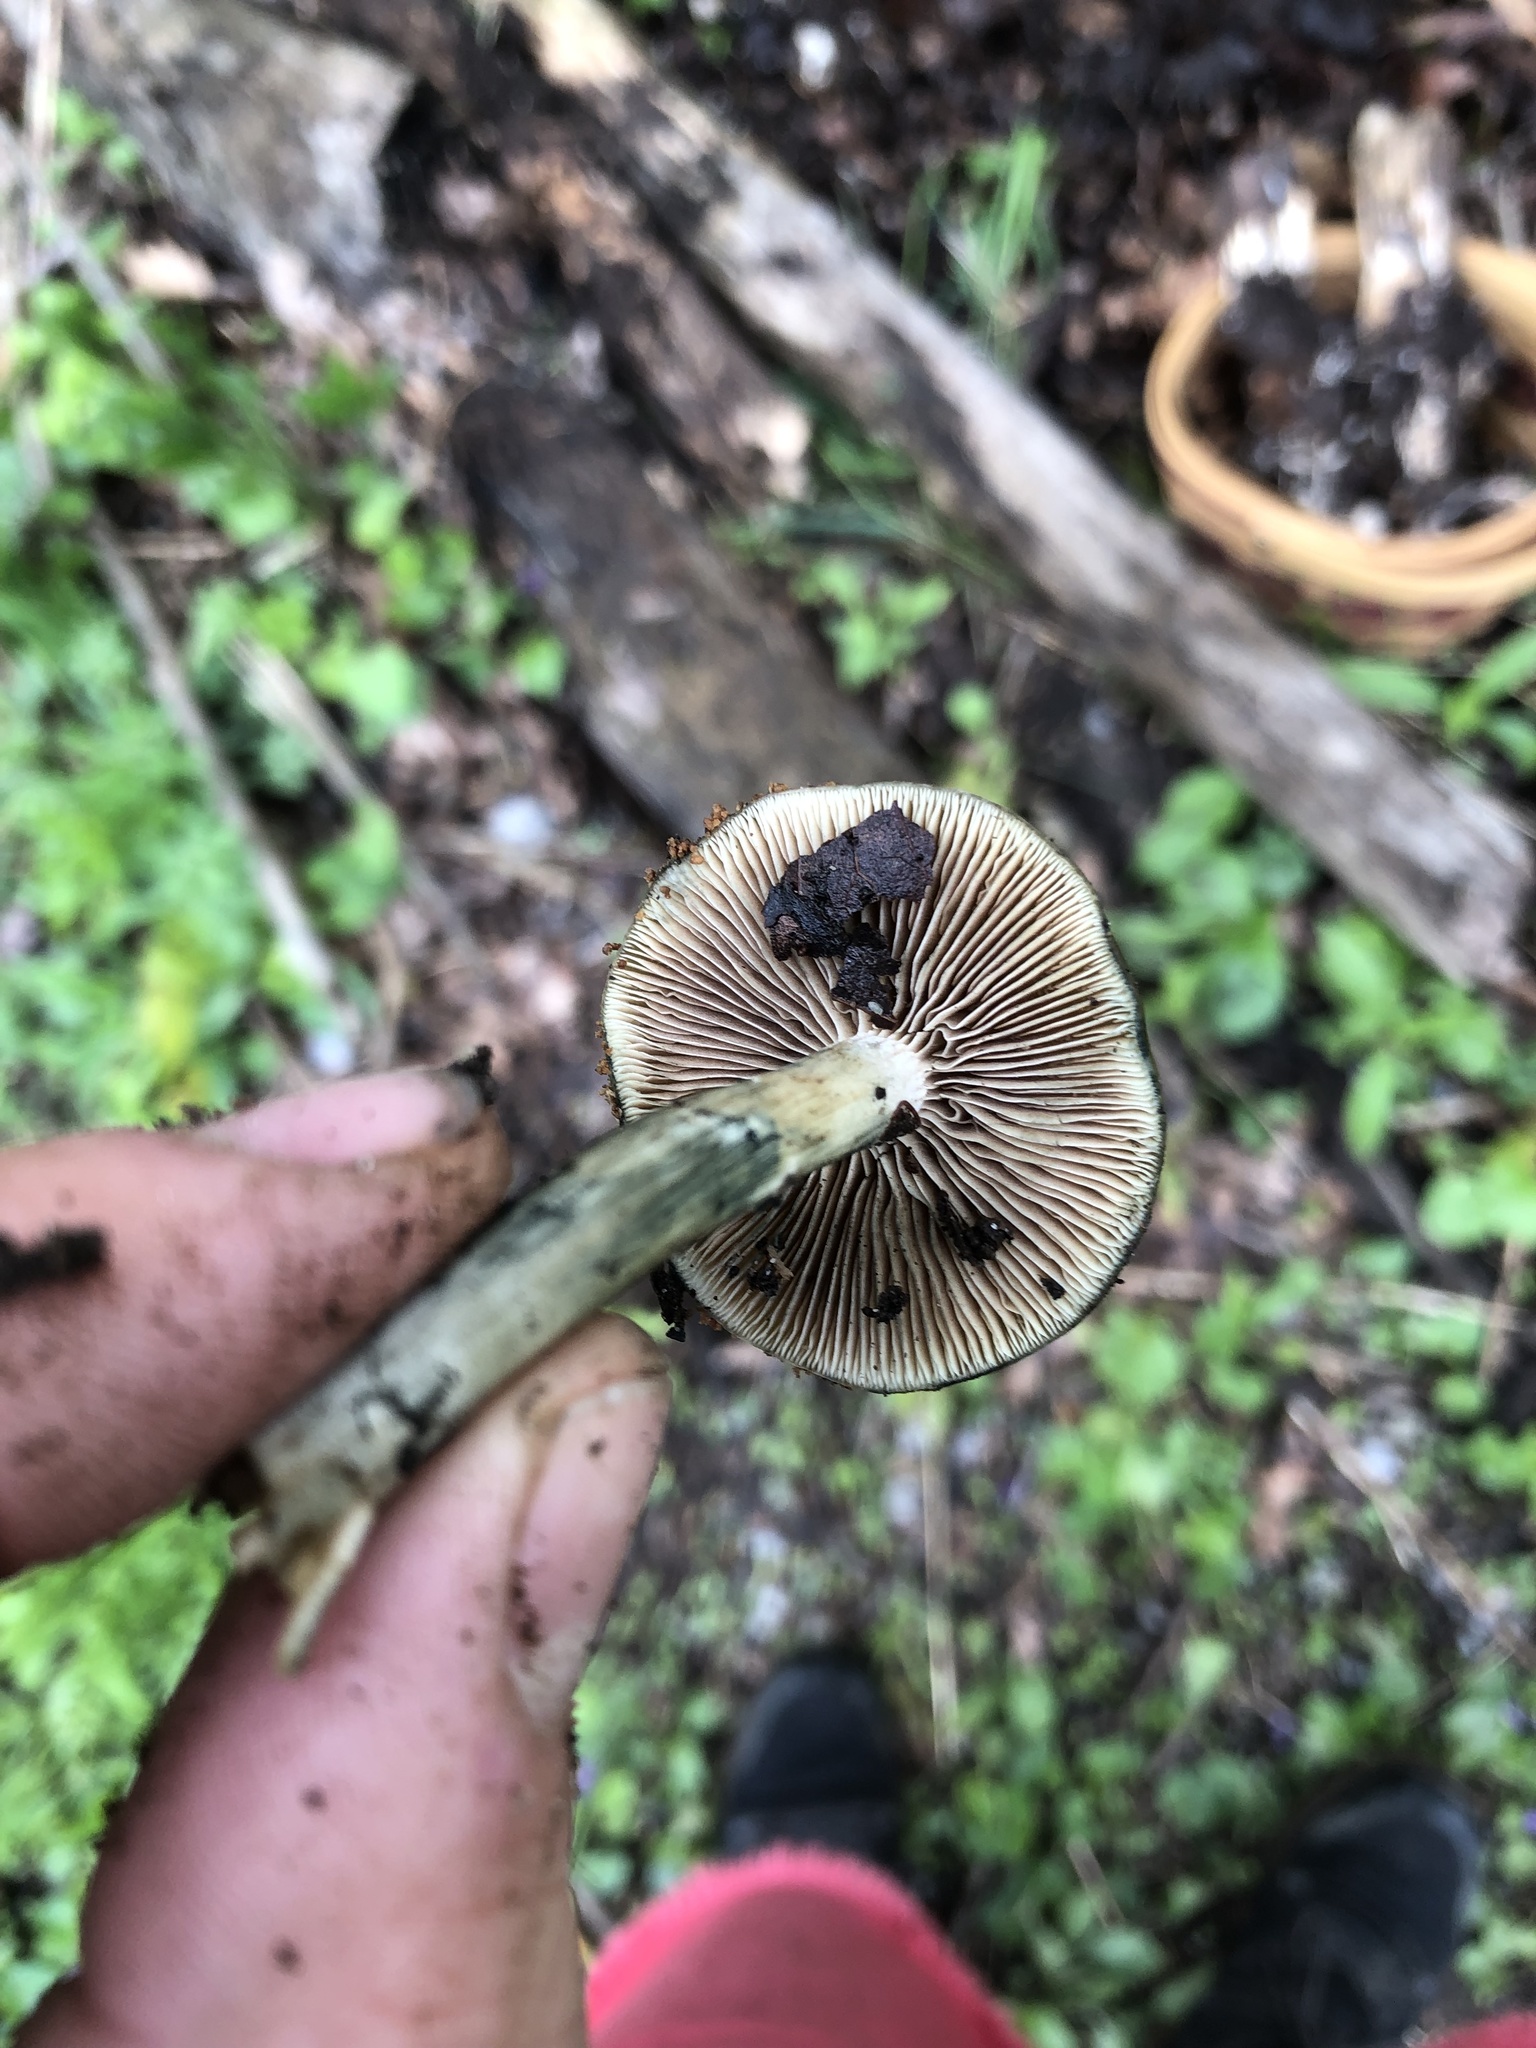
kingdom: Fungi
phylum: Basidiomycota
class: Agaricomycetes
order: Agaricales
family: Hymenogastraceae
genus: Psilocybe
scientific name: Psilocybe ovoideocystidiata
